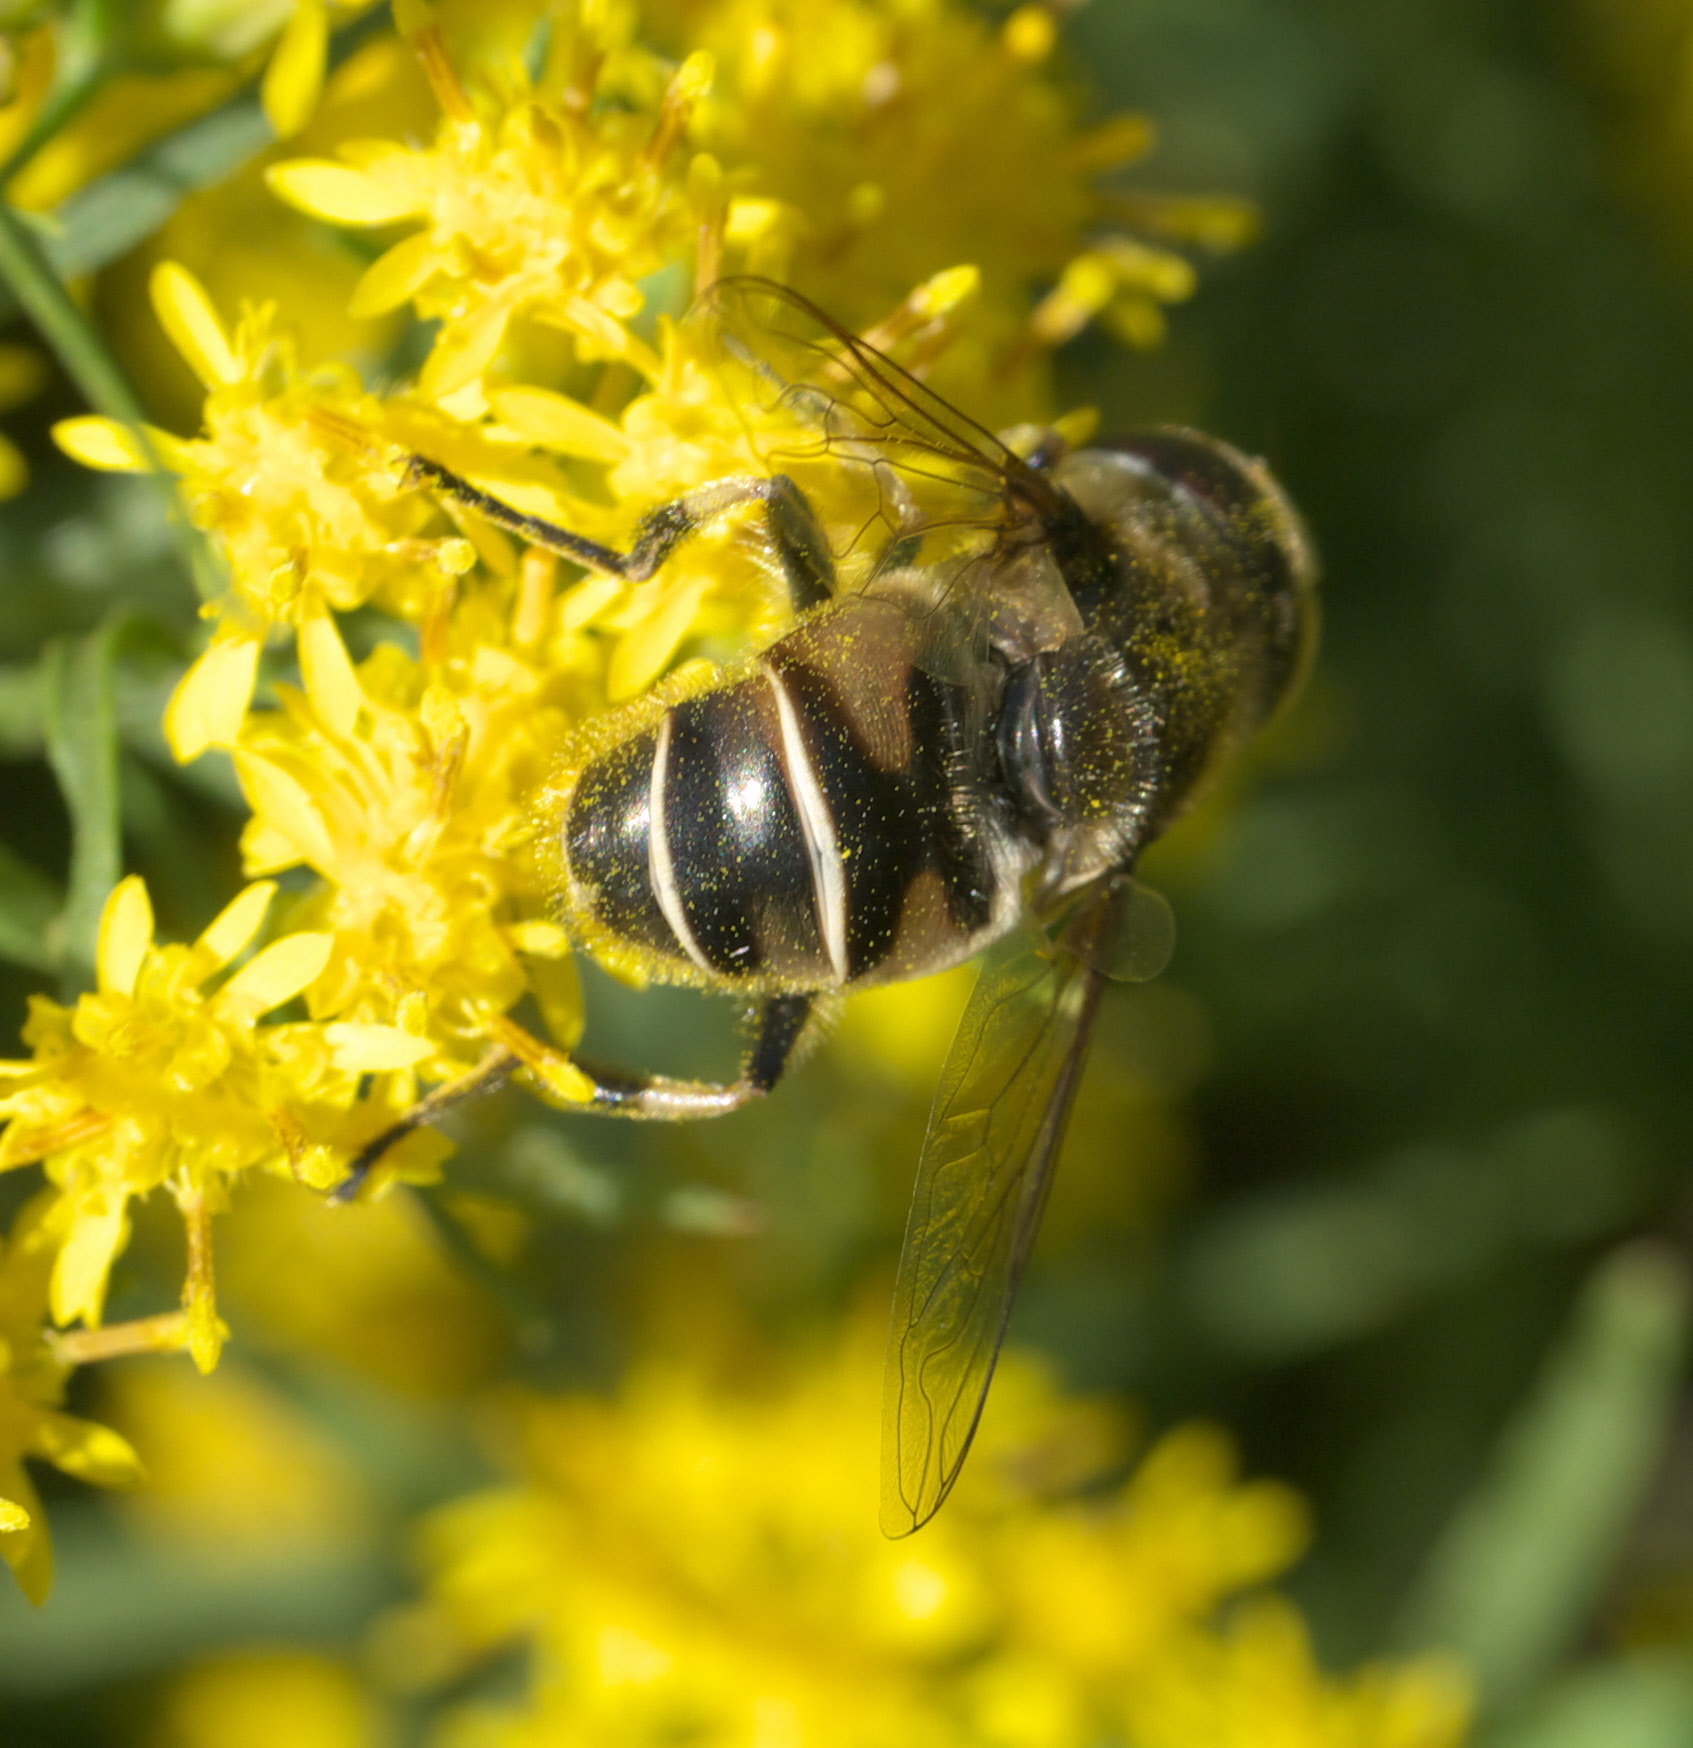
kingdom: Animalia
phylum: Arthropoda
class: Insecta
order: Diptera
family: Syrphidae
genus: Eristalis
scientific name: Eristalis dimidiata
